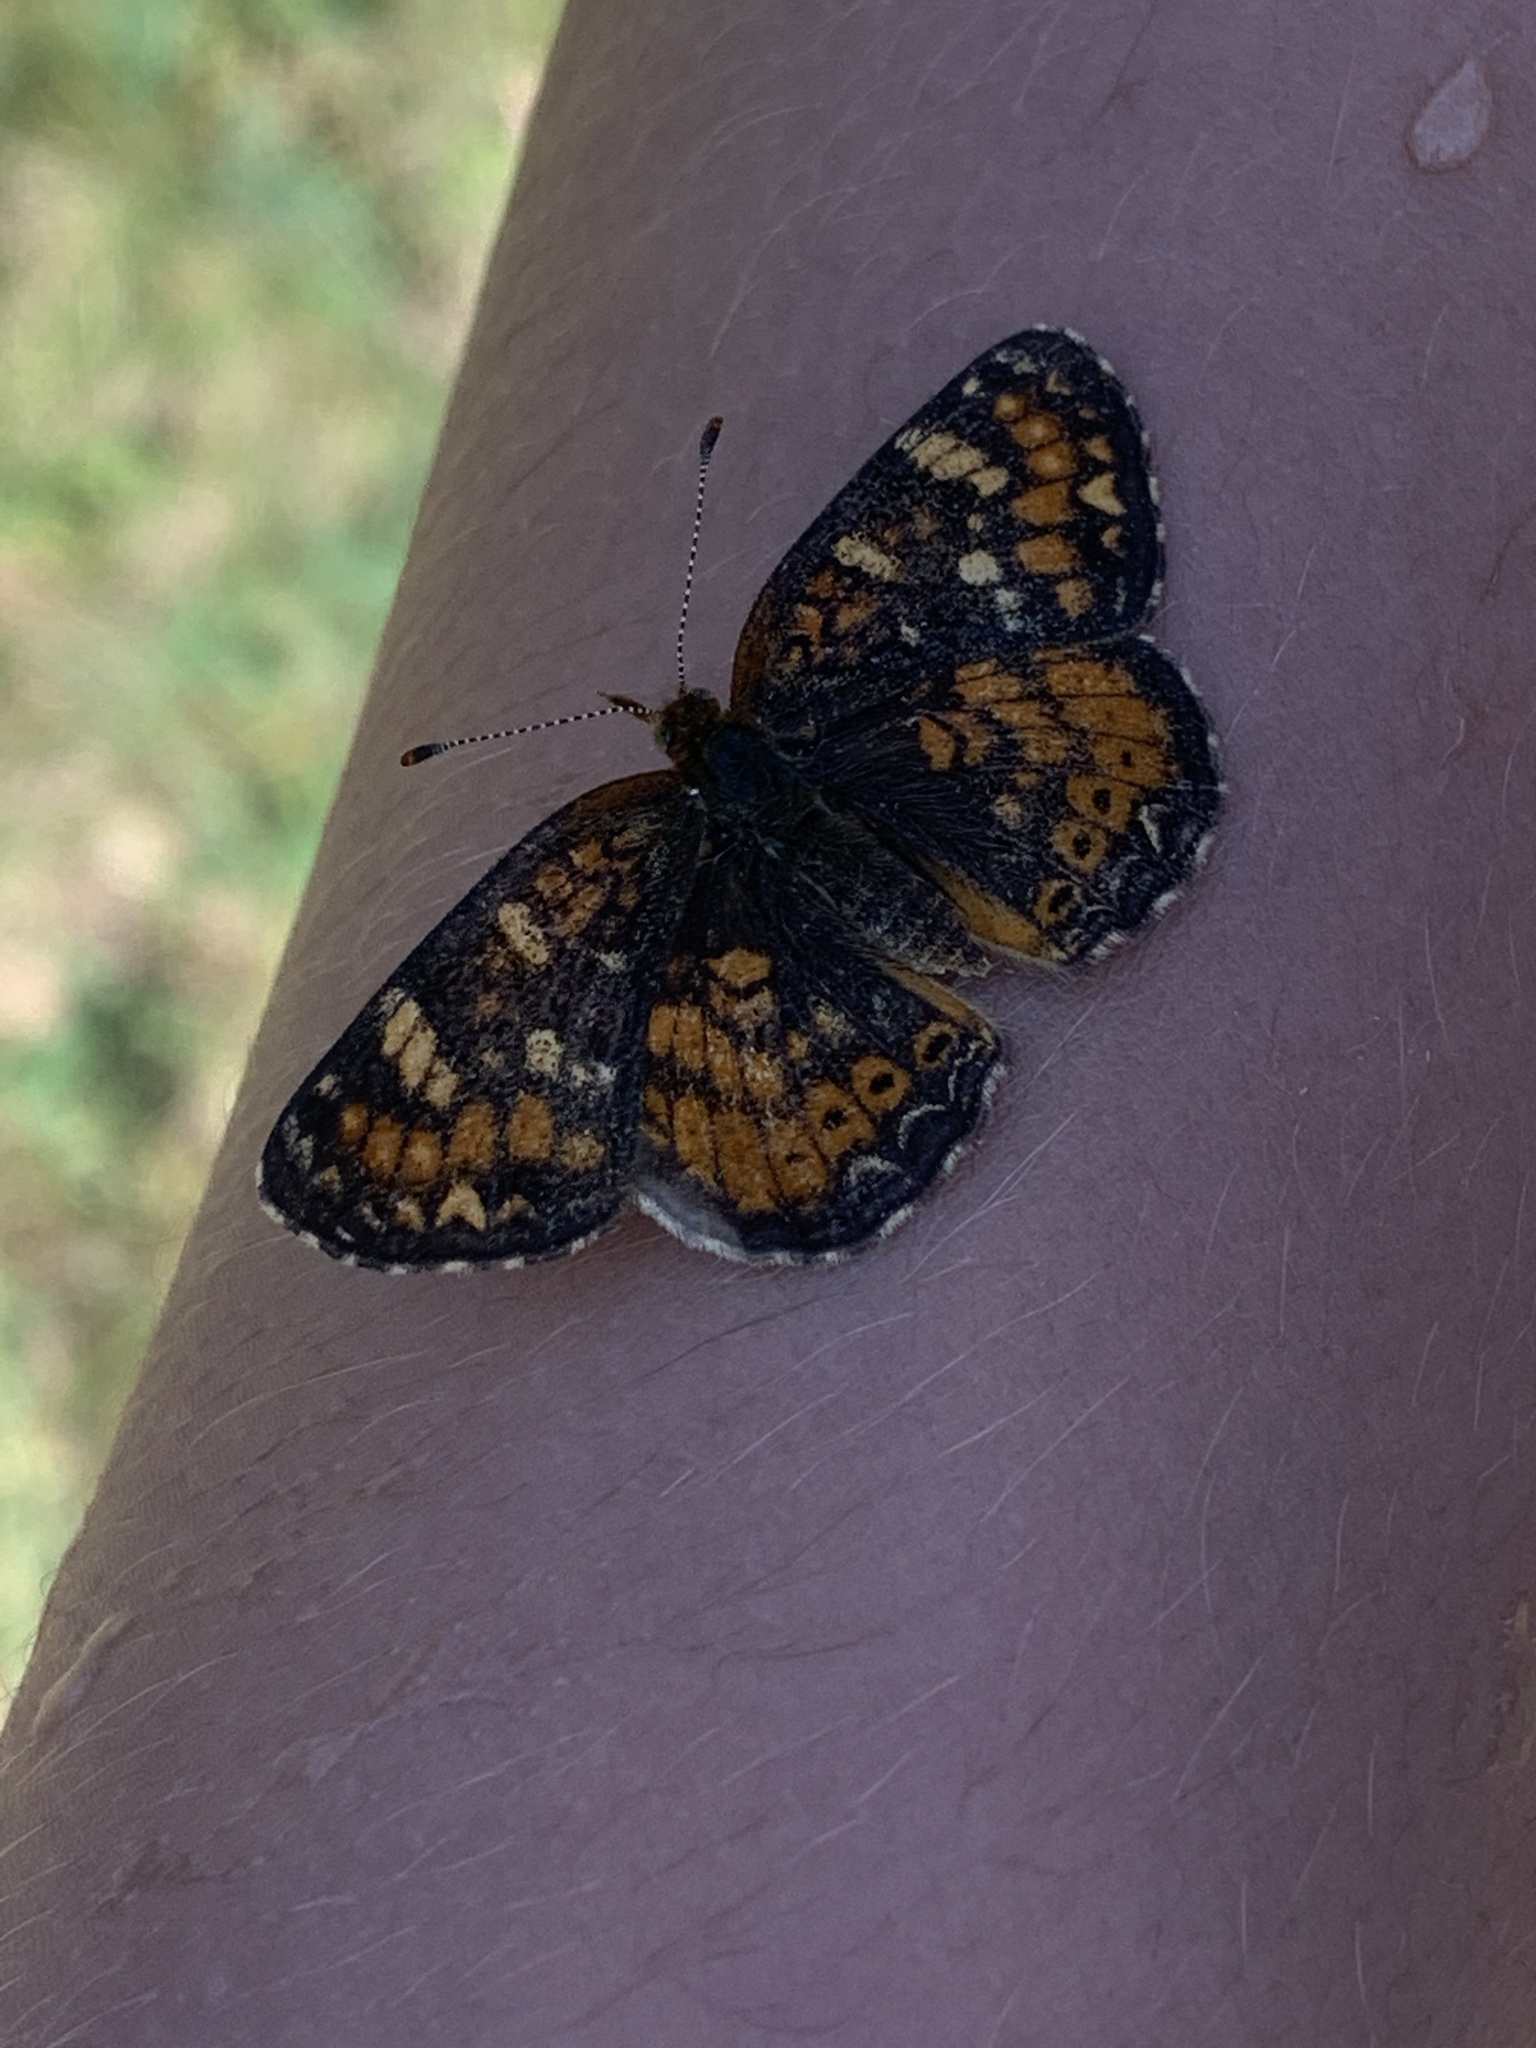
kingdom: Animalia
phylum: Arthropoda
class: Insecta
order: Lepidoptera
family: Nymphalidae
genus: Phyciodes
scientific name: Phyciodes tharos
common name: Pearl crescent
